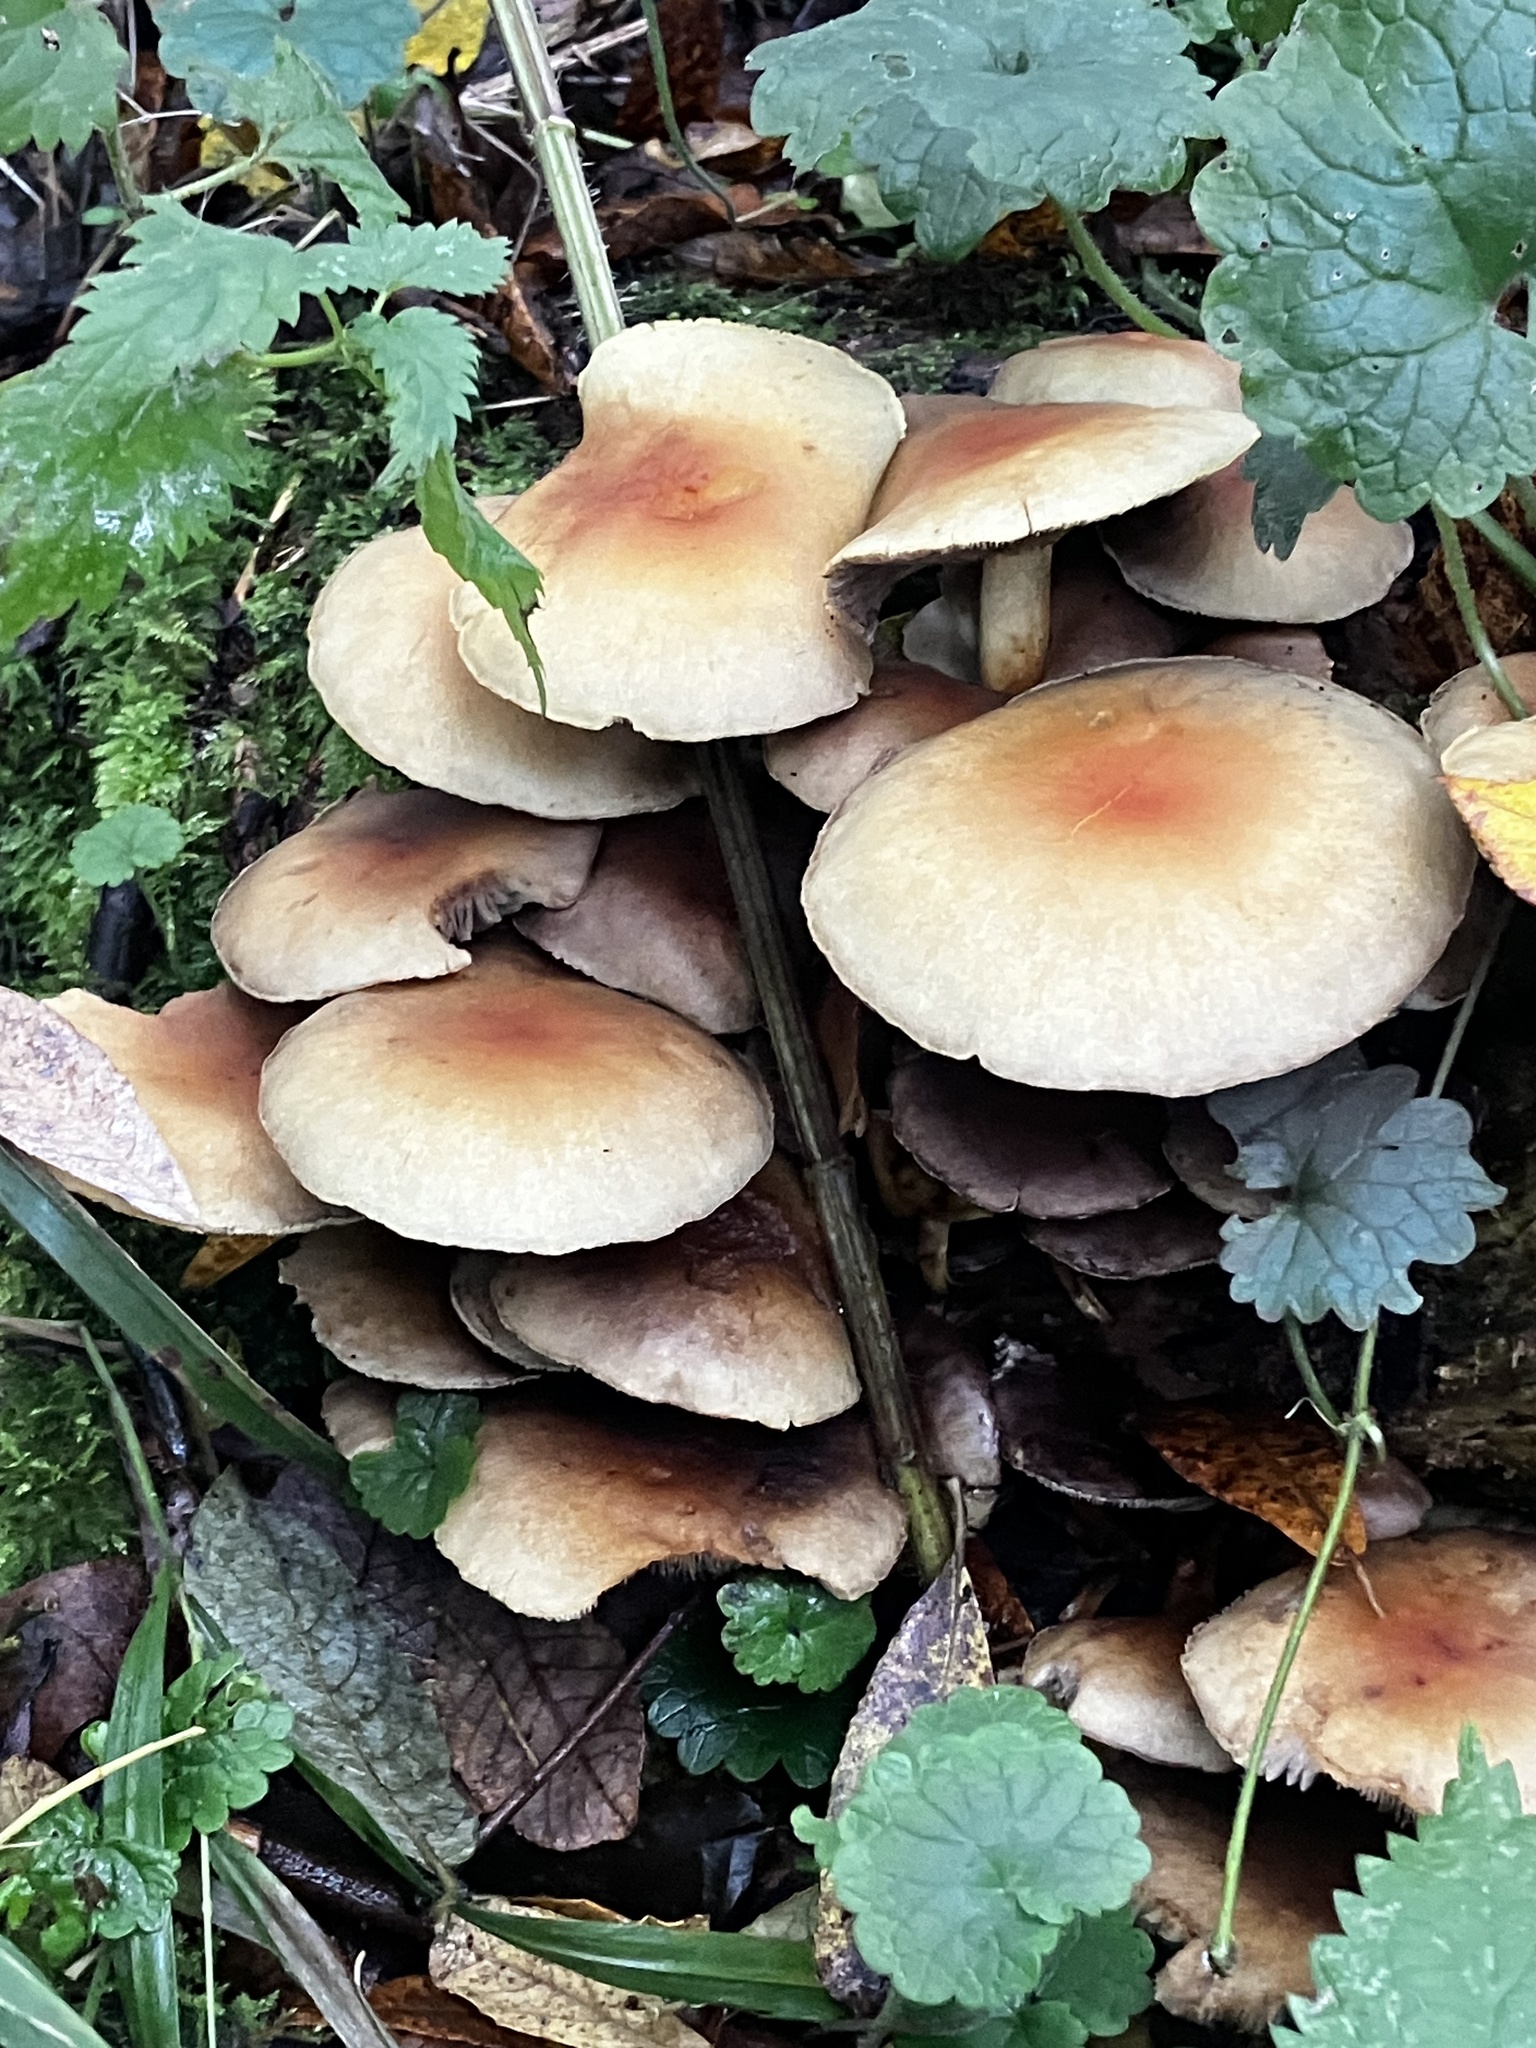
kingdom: Fungi
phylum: Basidiomycota
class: Agaricomycetes
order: Agaricales
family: Strophariaceae
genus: Hypholoma
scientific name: Hypholoma fasciculare
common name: Sulphur tuft
